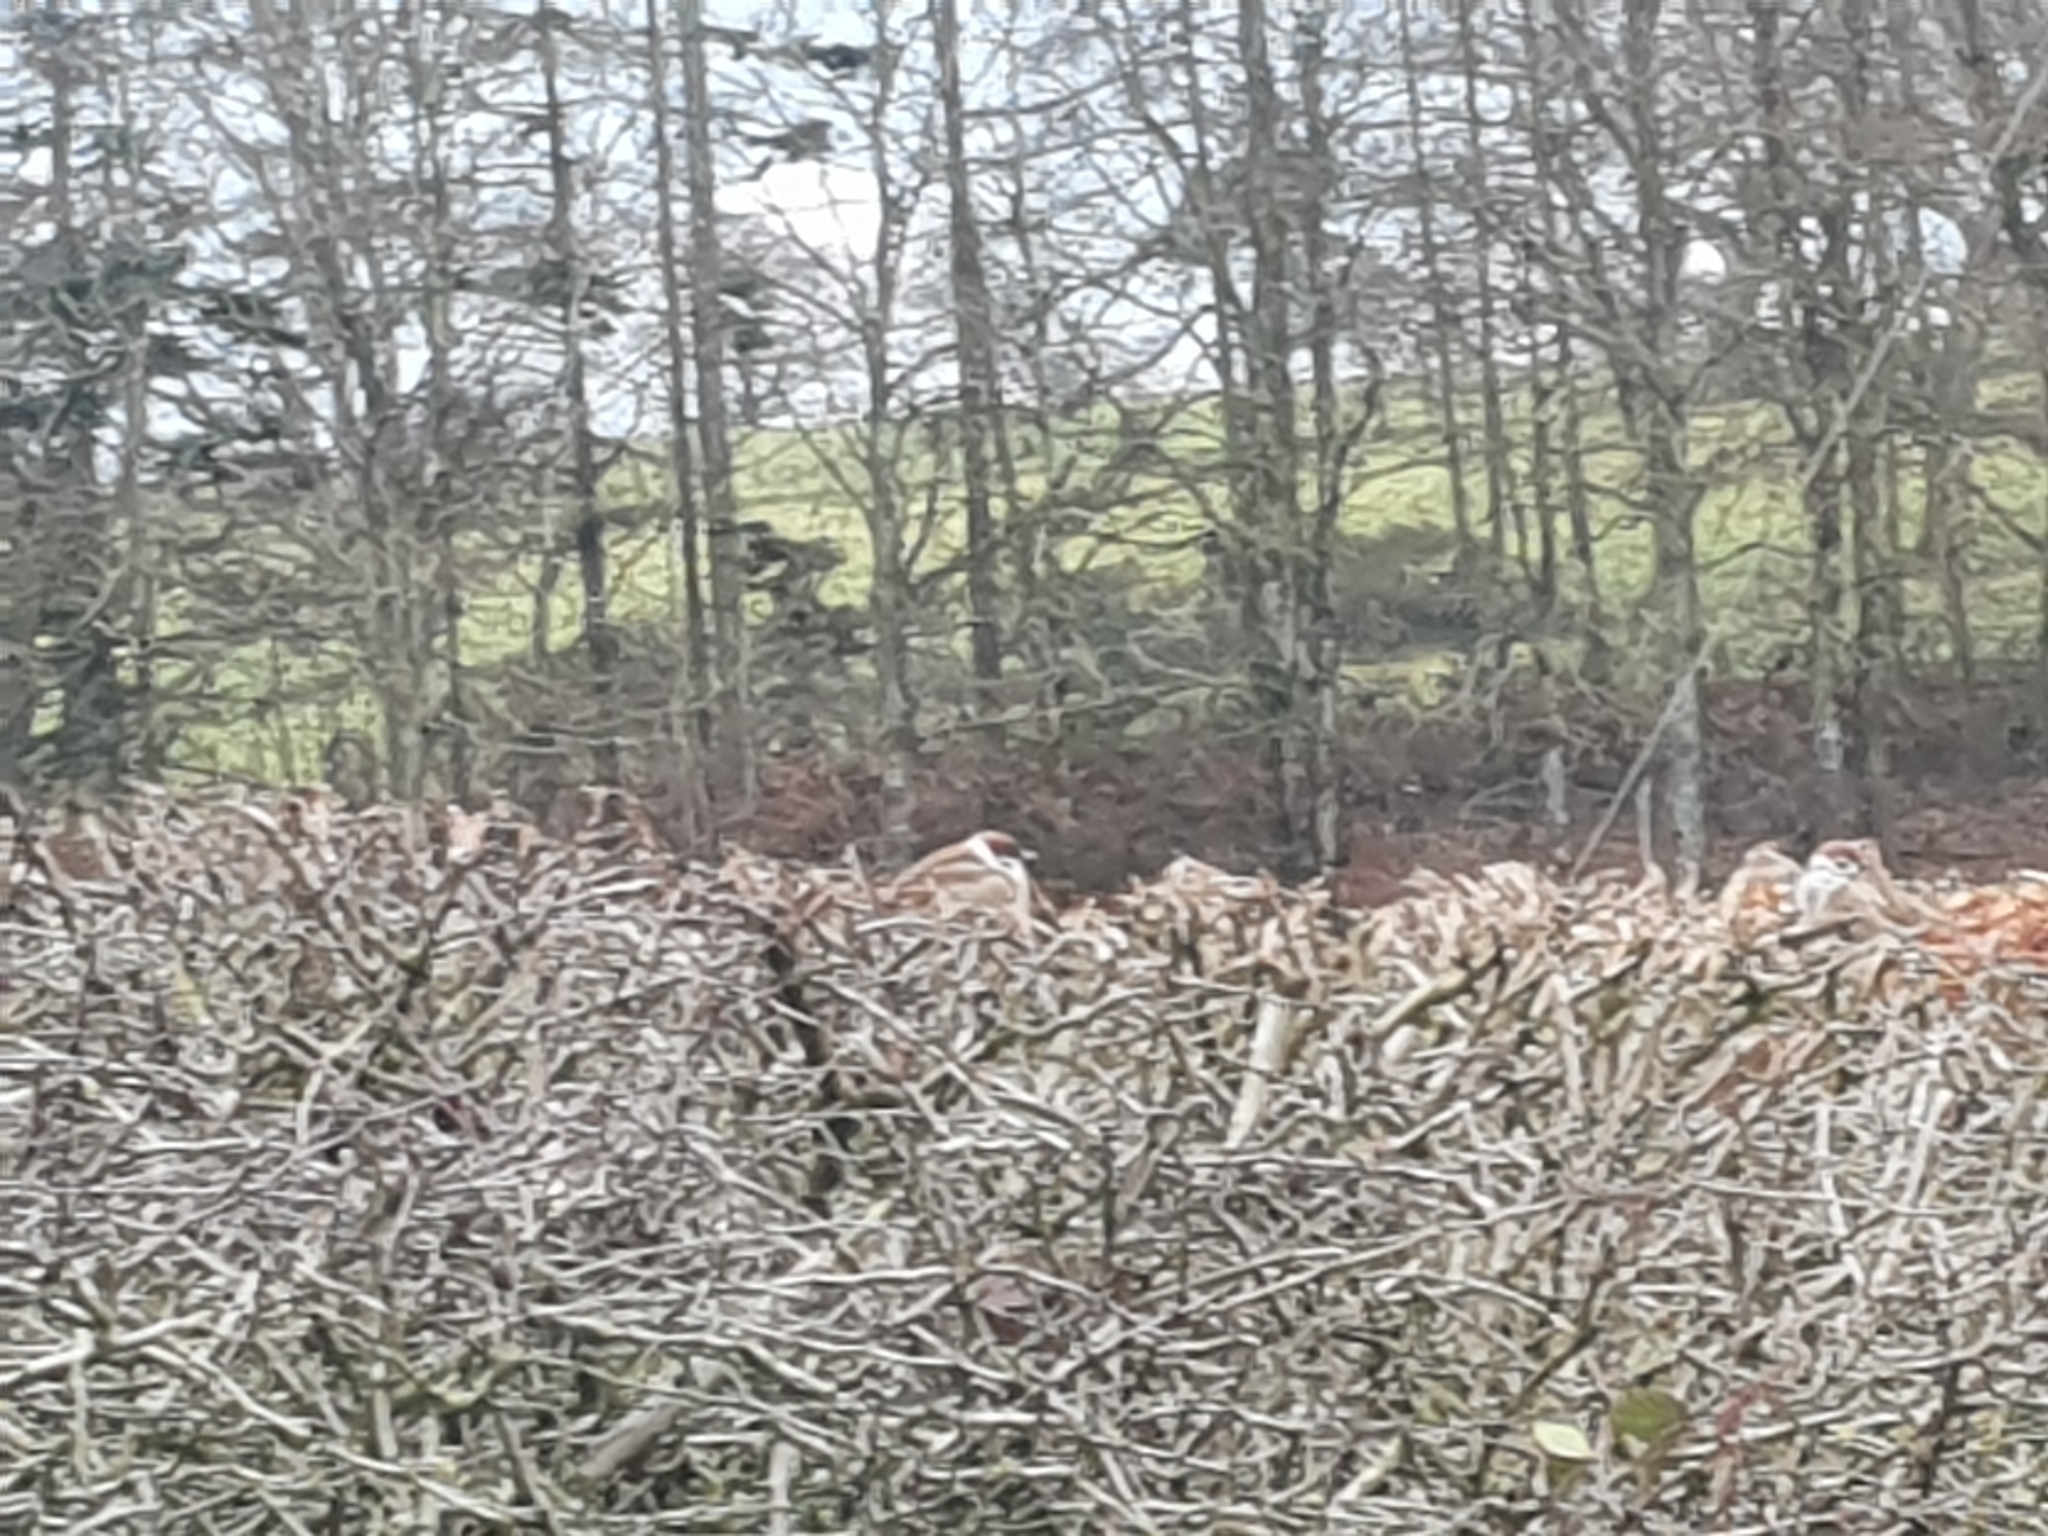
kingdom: Animalia
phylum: Chordata
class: Aves
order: Passeriformes
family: Passeridae
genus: Passer
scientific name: Passer montanus
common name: Eurasian tree sparrow
